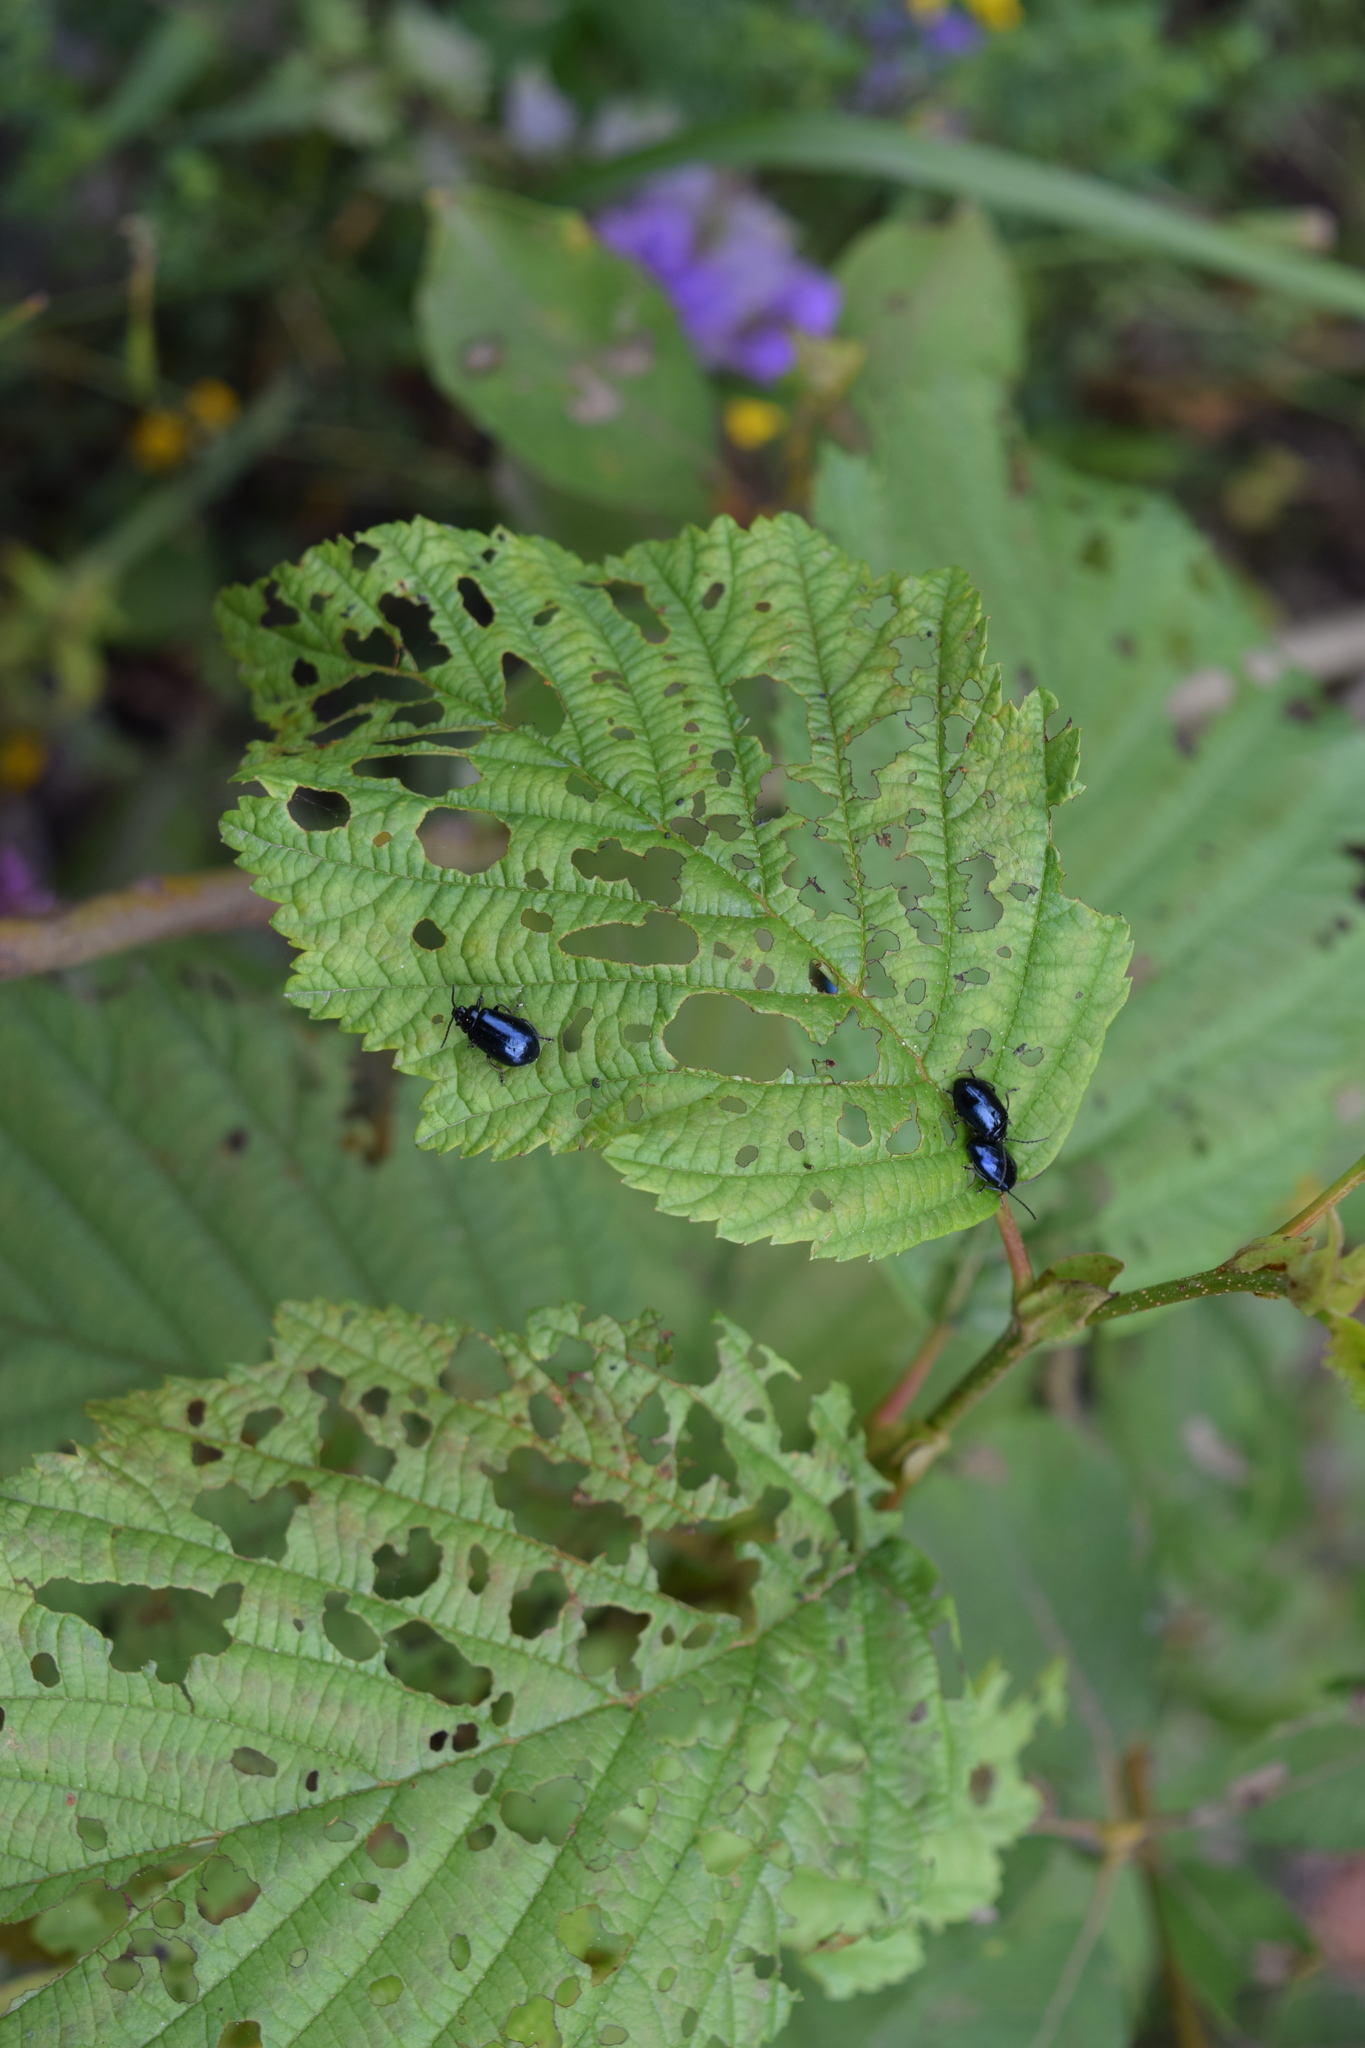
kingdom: Animalia
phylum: Arthropoda
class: Insecta
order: Coleoptera
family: Chrysomelidae
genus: Agelastica
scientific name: Agelastica alni
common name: Alder leaf beetle
